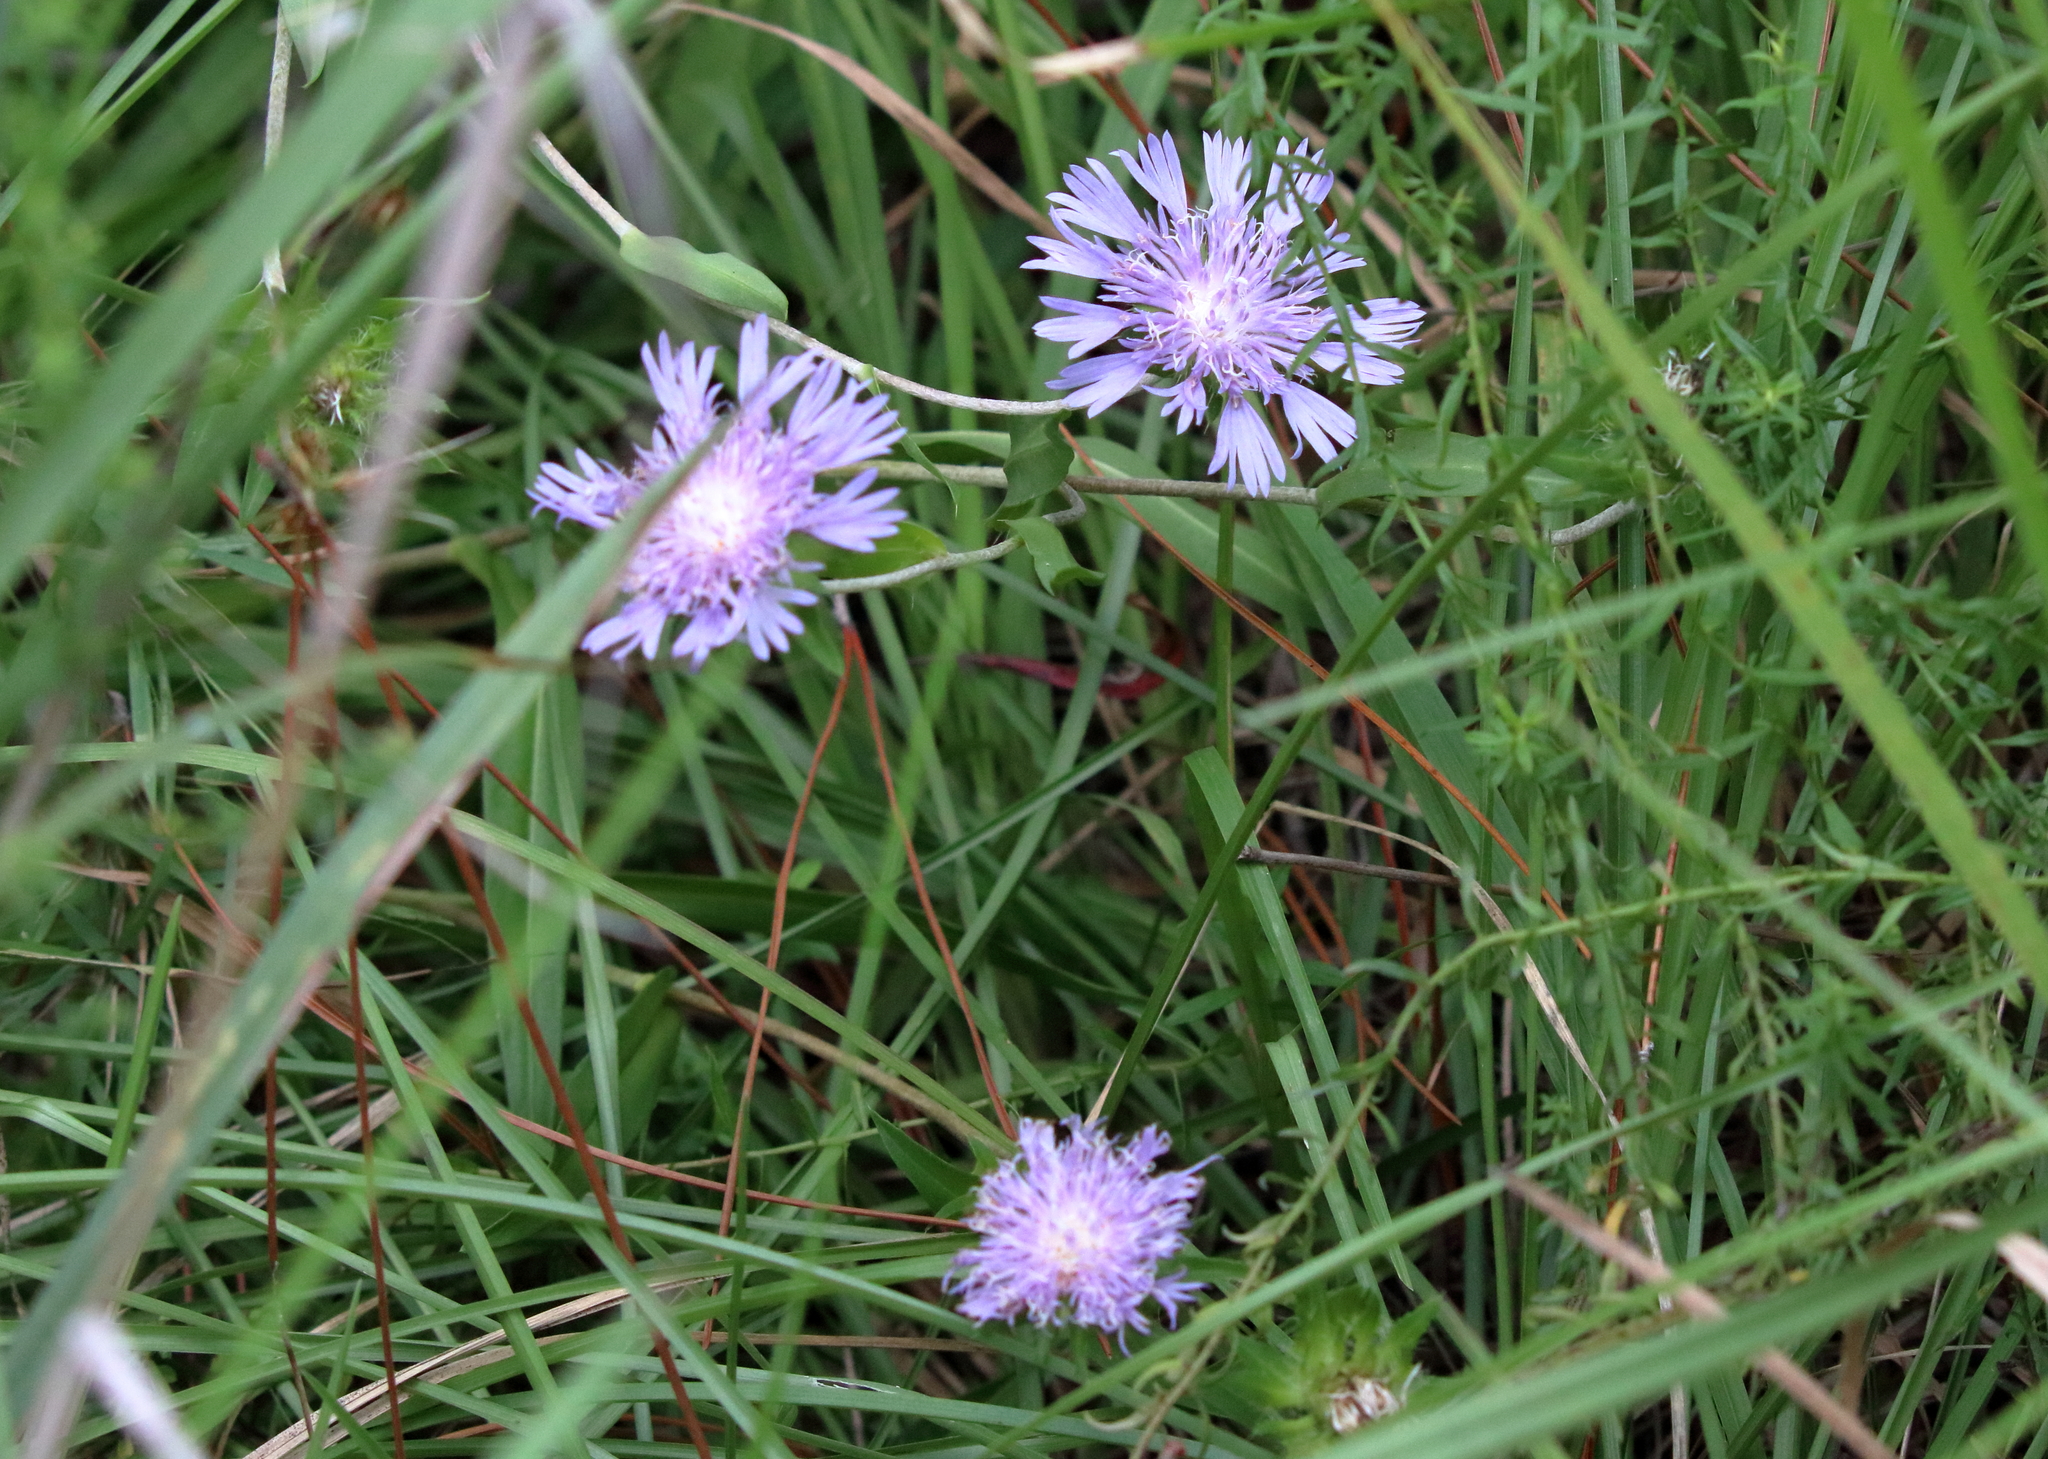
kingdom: Plantae
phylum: Tracheophyta
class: Magnoliopsida
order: Asterales
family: Asteraceae
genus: Stokesia
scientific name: Stokesia laevis
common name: Stokes'-aster
